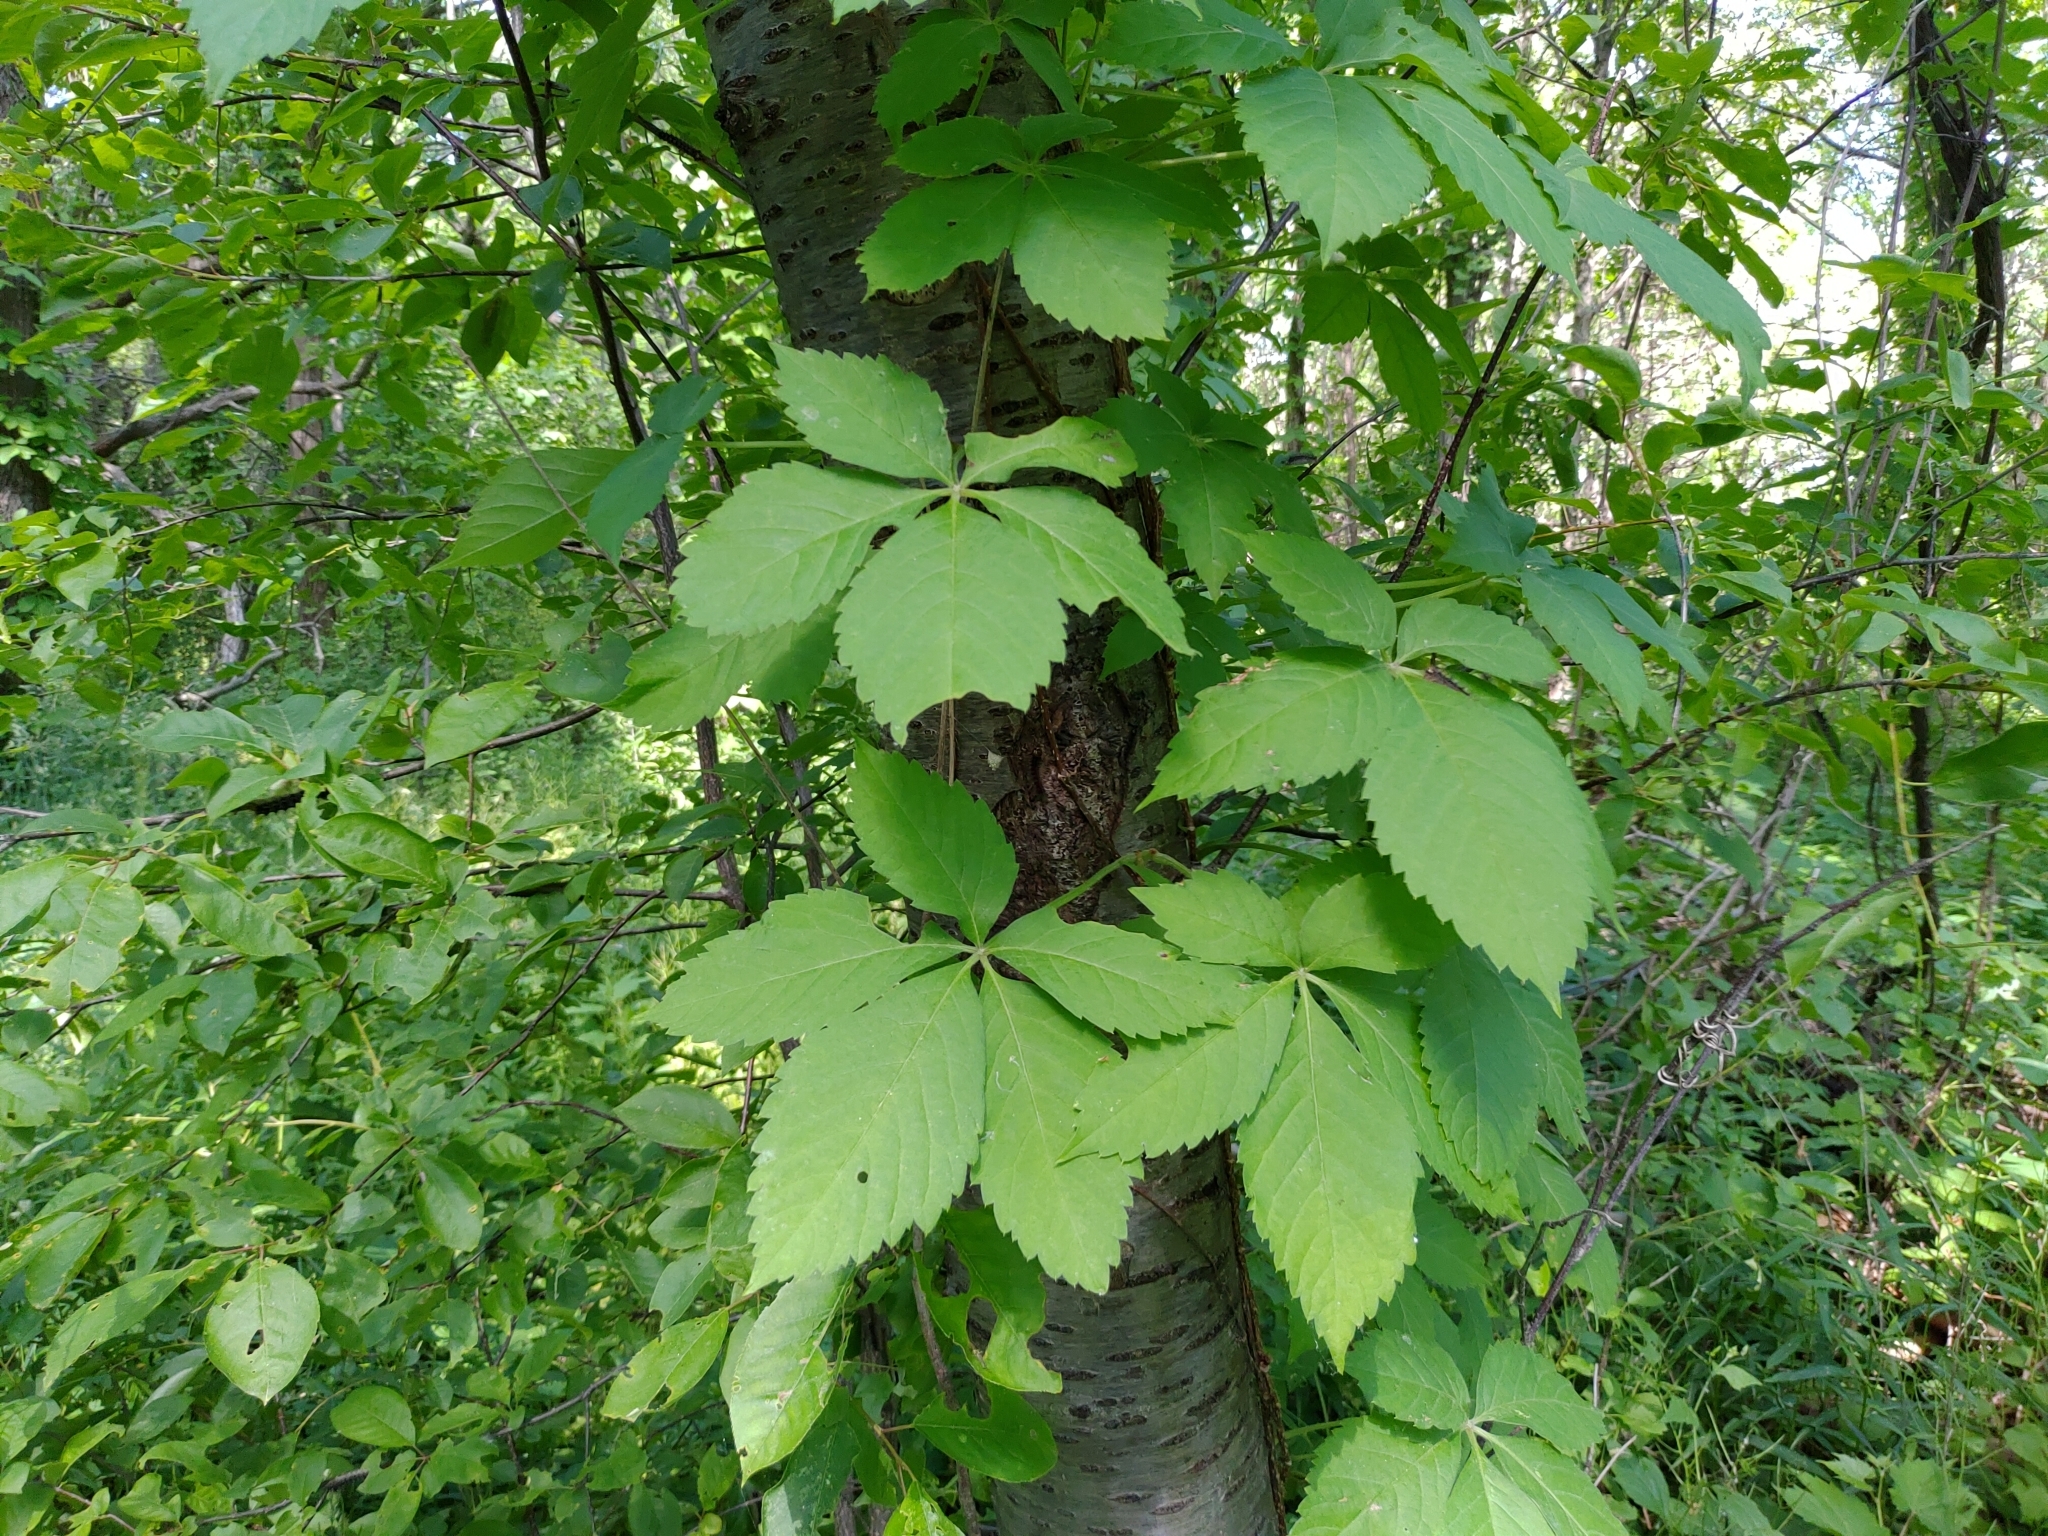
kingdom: Plantae
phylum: Tracheophyta
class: Magnoliopsida
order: Vitales
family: Vitaceae
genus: Parthenocissus
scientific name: Parthenocissus quinquefolia
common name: Virginia-creeper
